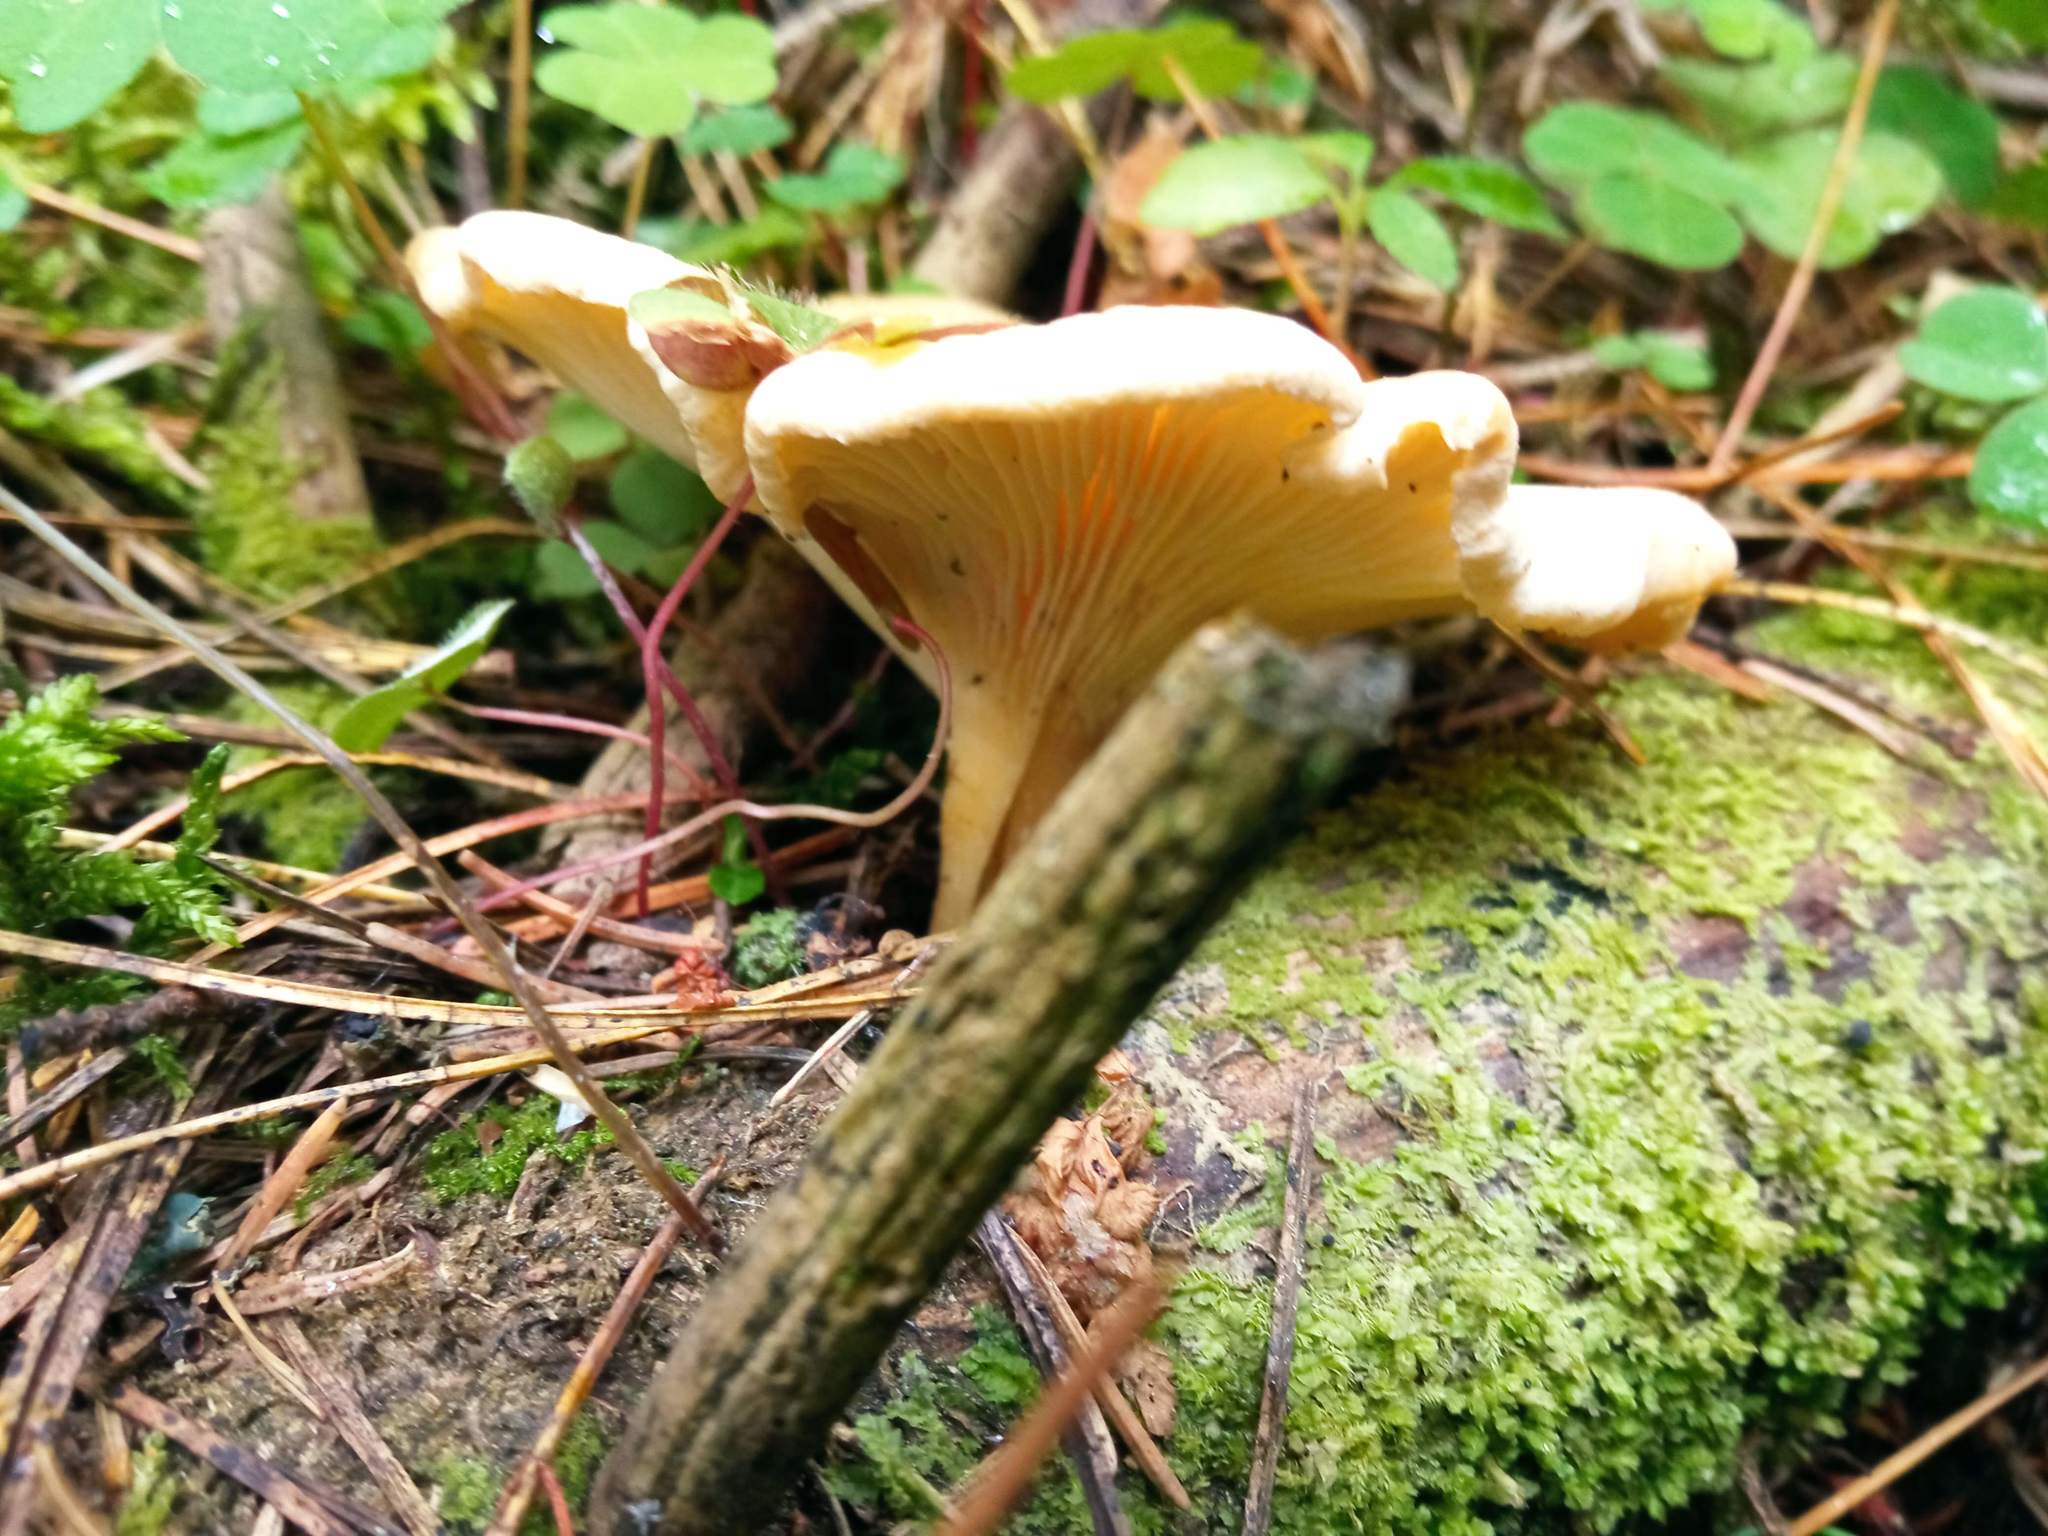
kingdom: Fungi
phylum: Basidiomycota
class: Agaricomycetes
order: Agaricales
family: Tricholomataceae
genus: Infundibulicybe
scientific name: Infundibulicybe gibba
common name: Common funnel
